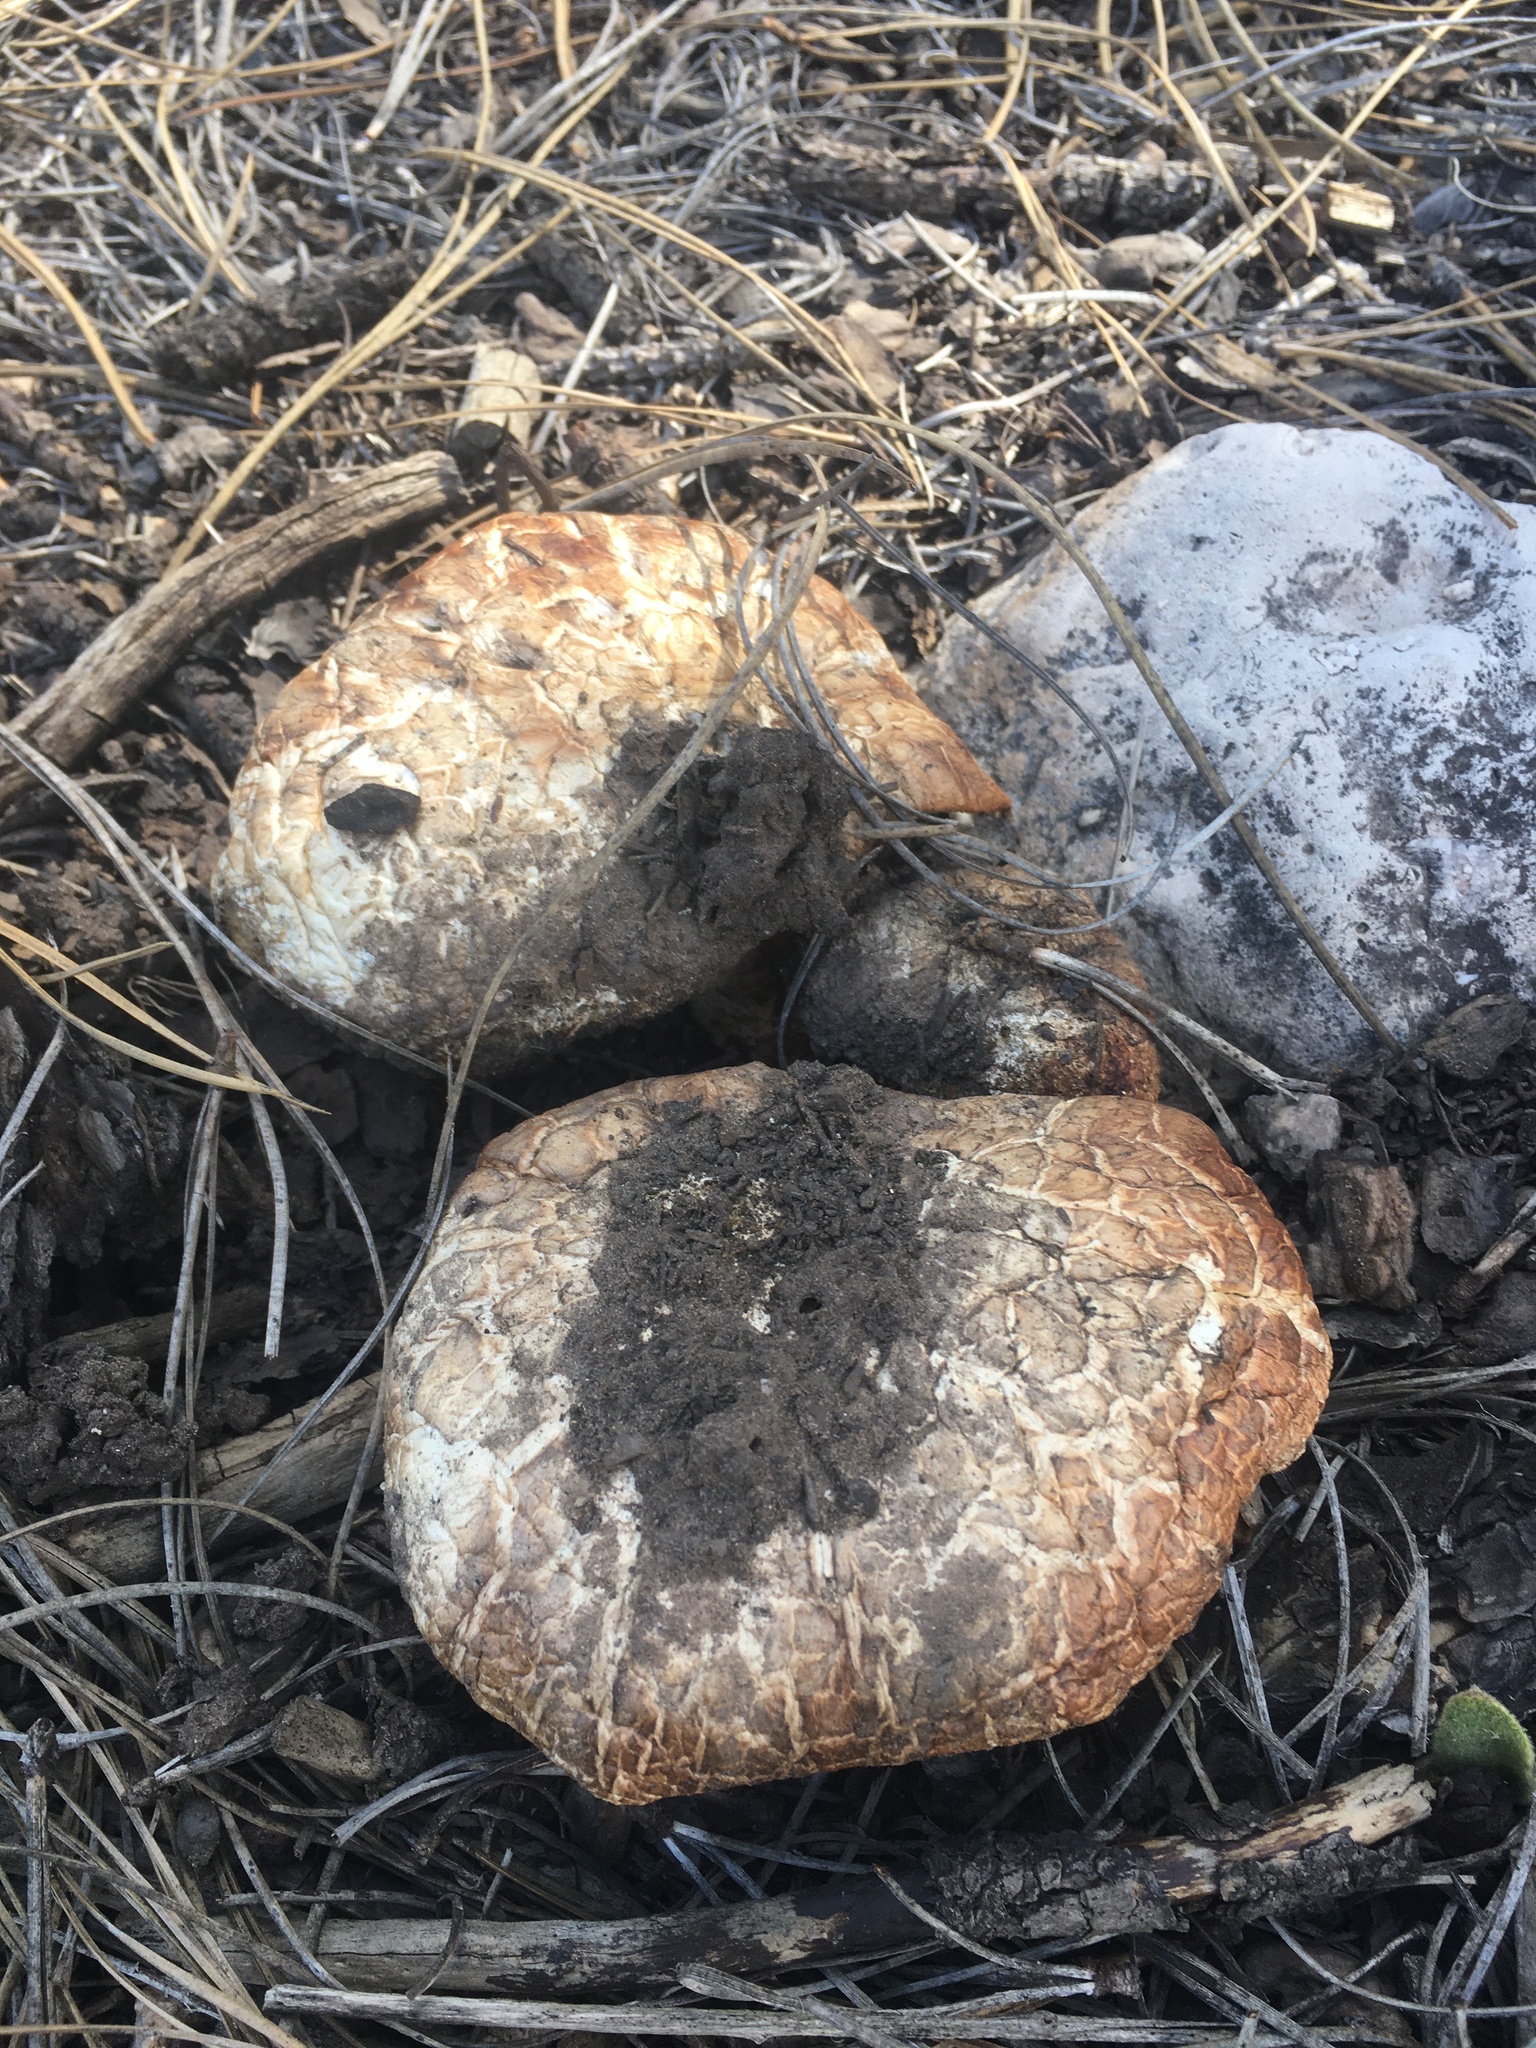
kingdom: Fungi
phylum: Basidiomycota
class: Agaricomycetes
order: Gloeophyllales
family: Gloeophyllaceae
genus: Neolentinus
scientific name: Neolentinus ponderosus
